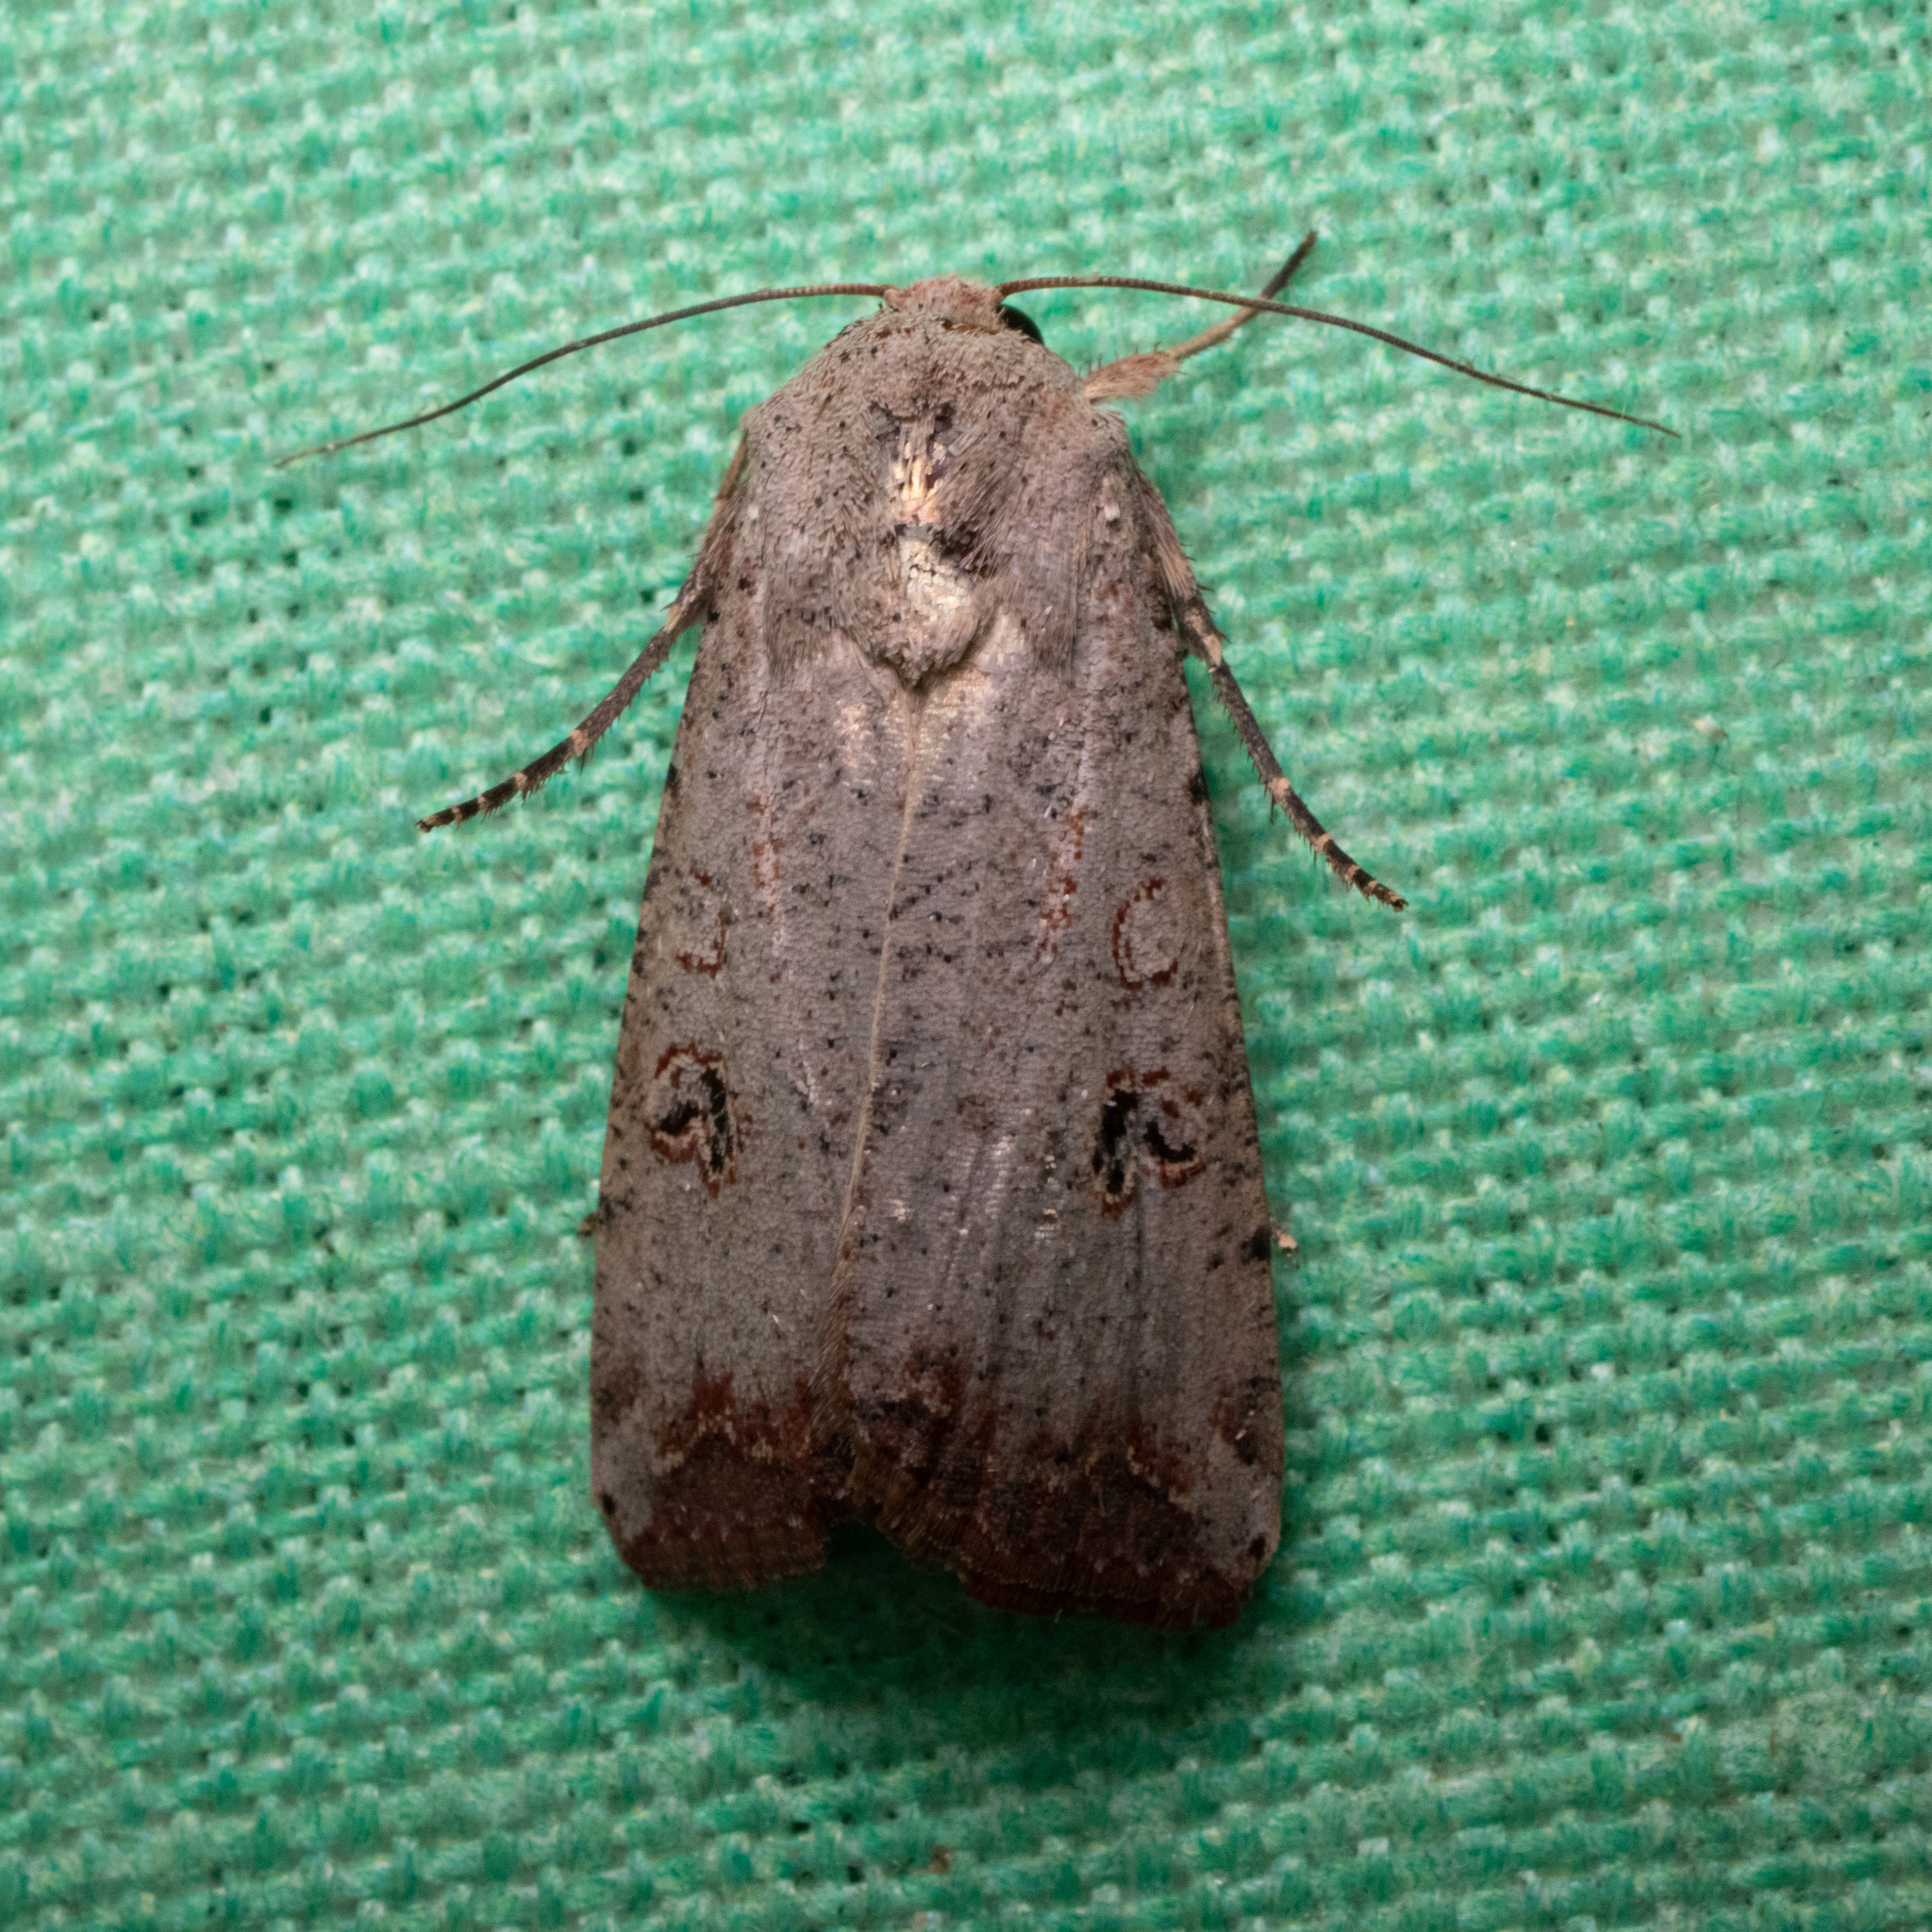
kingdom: Animalia
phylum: Arthropoda
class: Insecta
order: Lepidoptera
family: Noctuidae
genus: Anicla
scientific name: Anicla infecta
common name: Green cutworm
